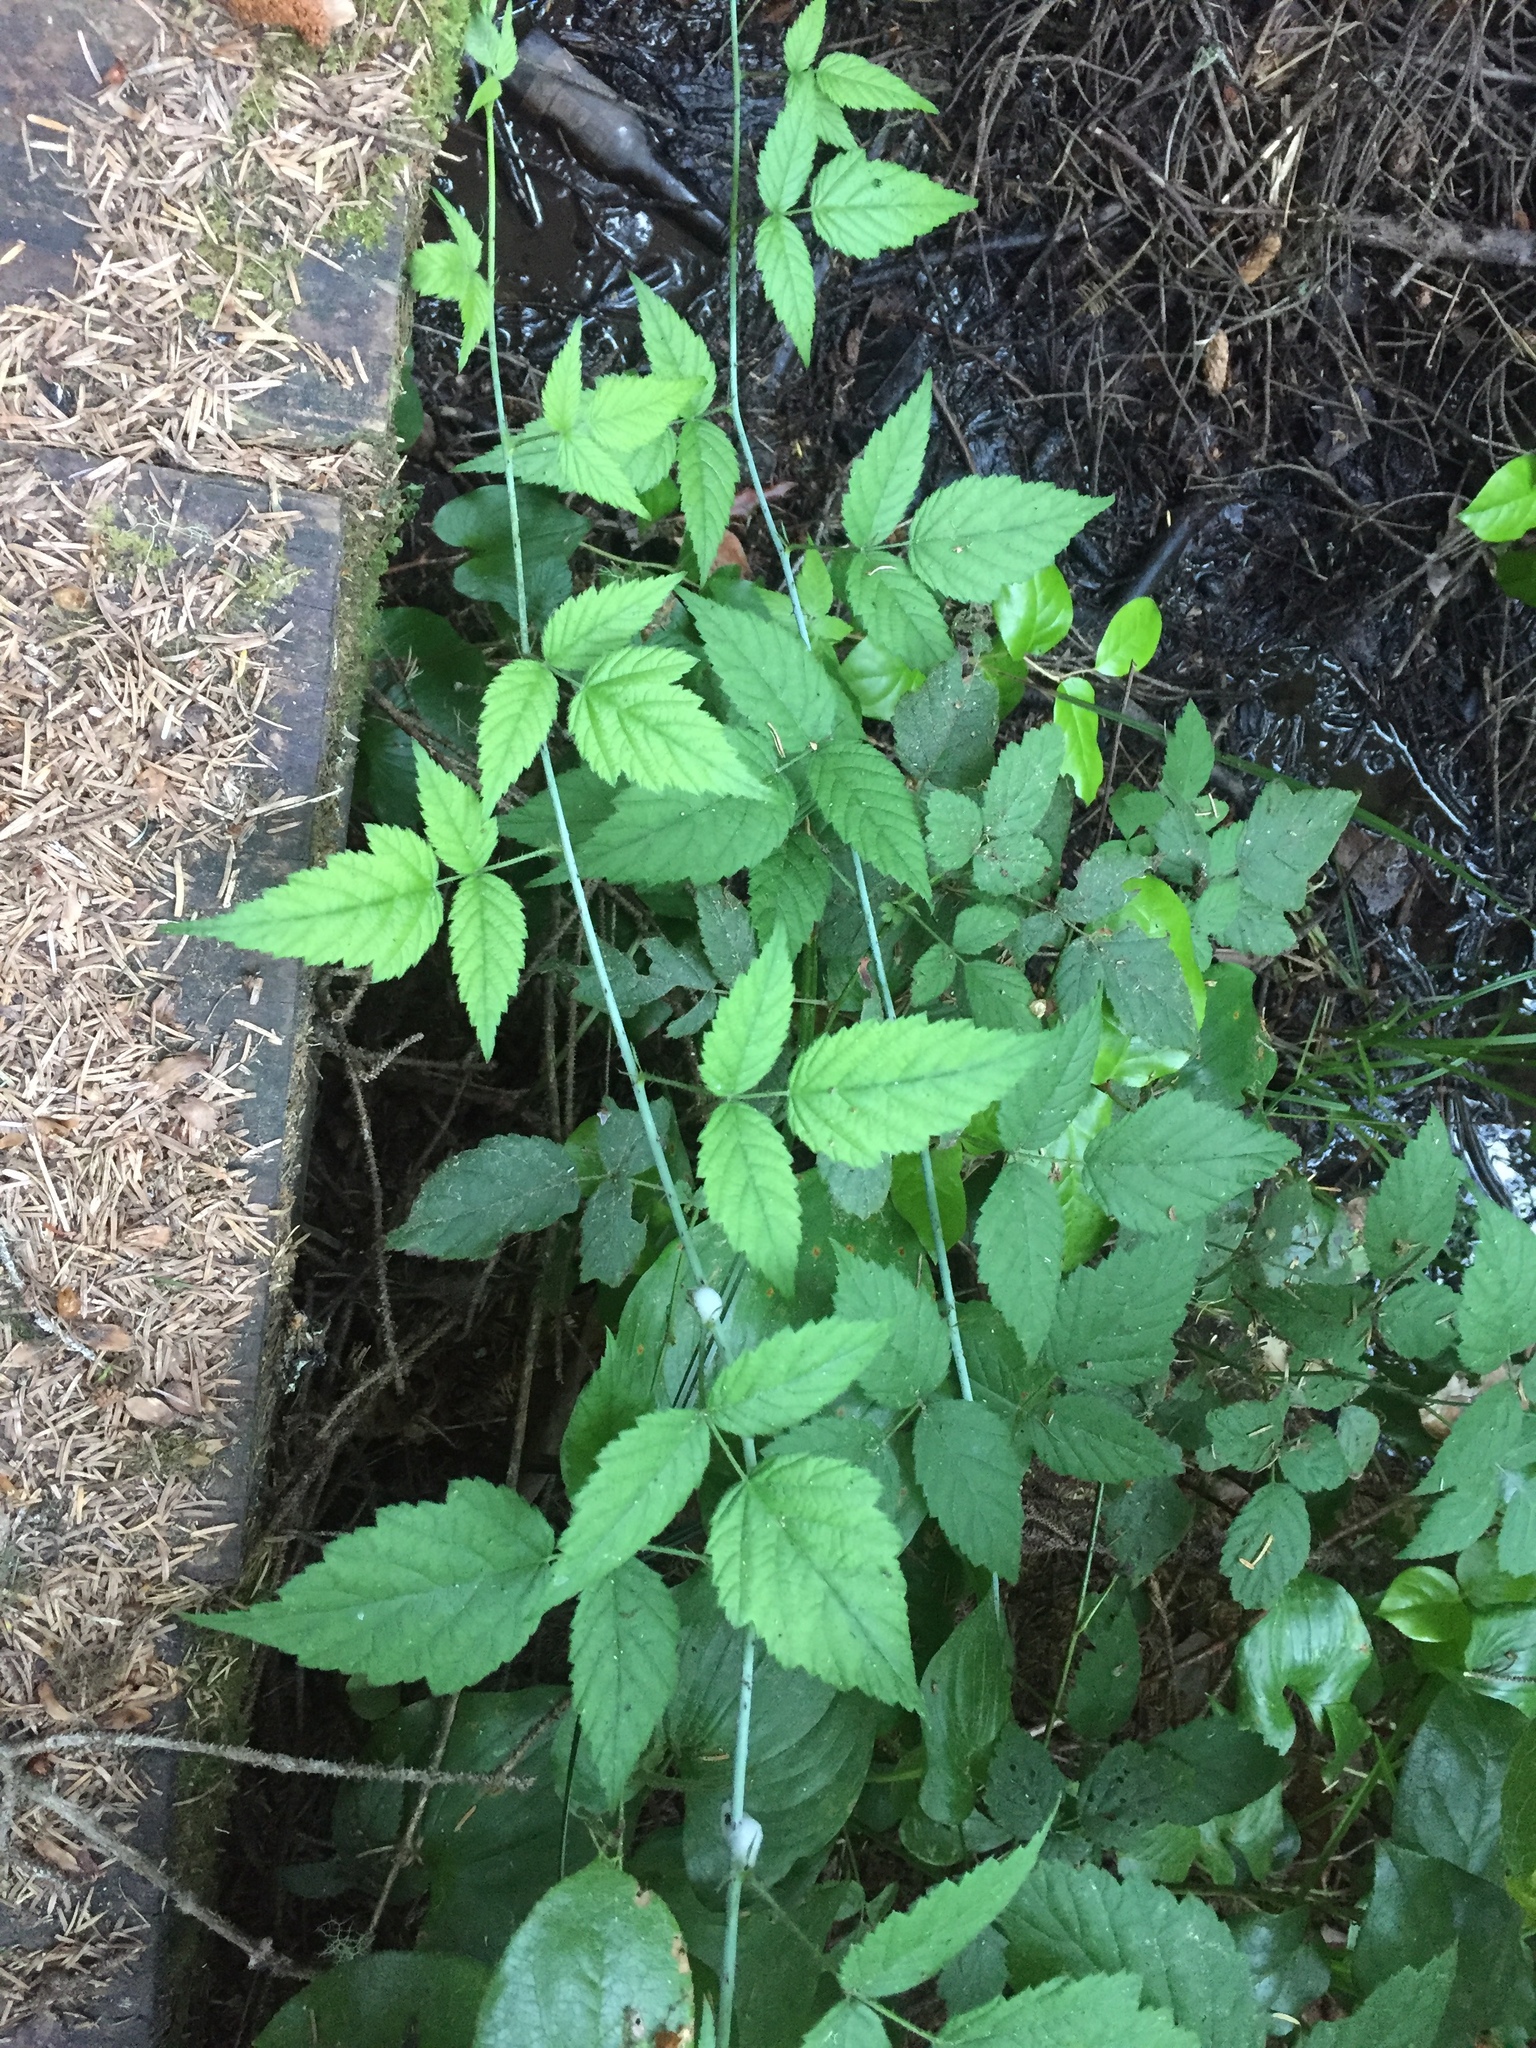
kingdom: Plantae
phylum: Tracheophyta
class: Magnoliopsida
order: Rosales
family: Rosaceae
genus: Rubus
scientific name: Rubus ursinus
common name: Pacific blackberry
